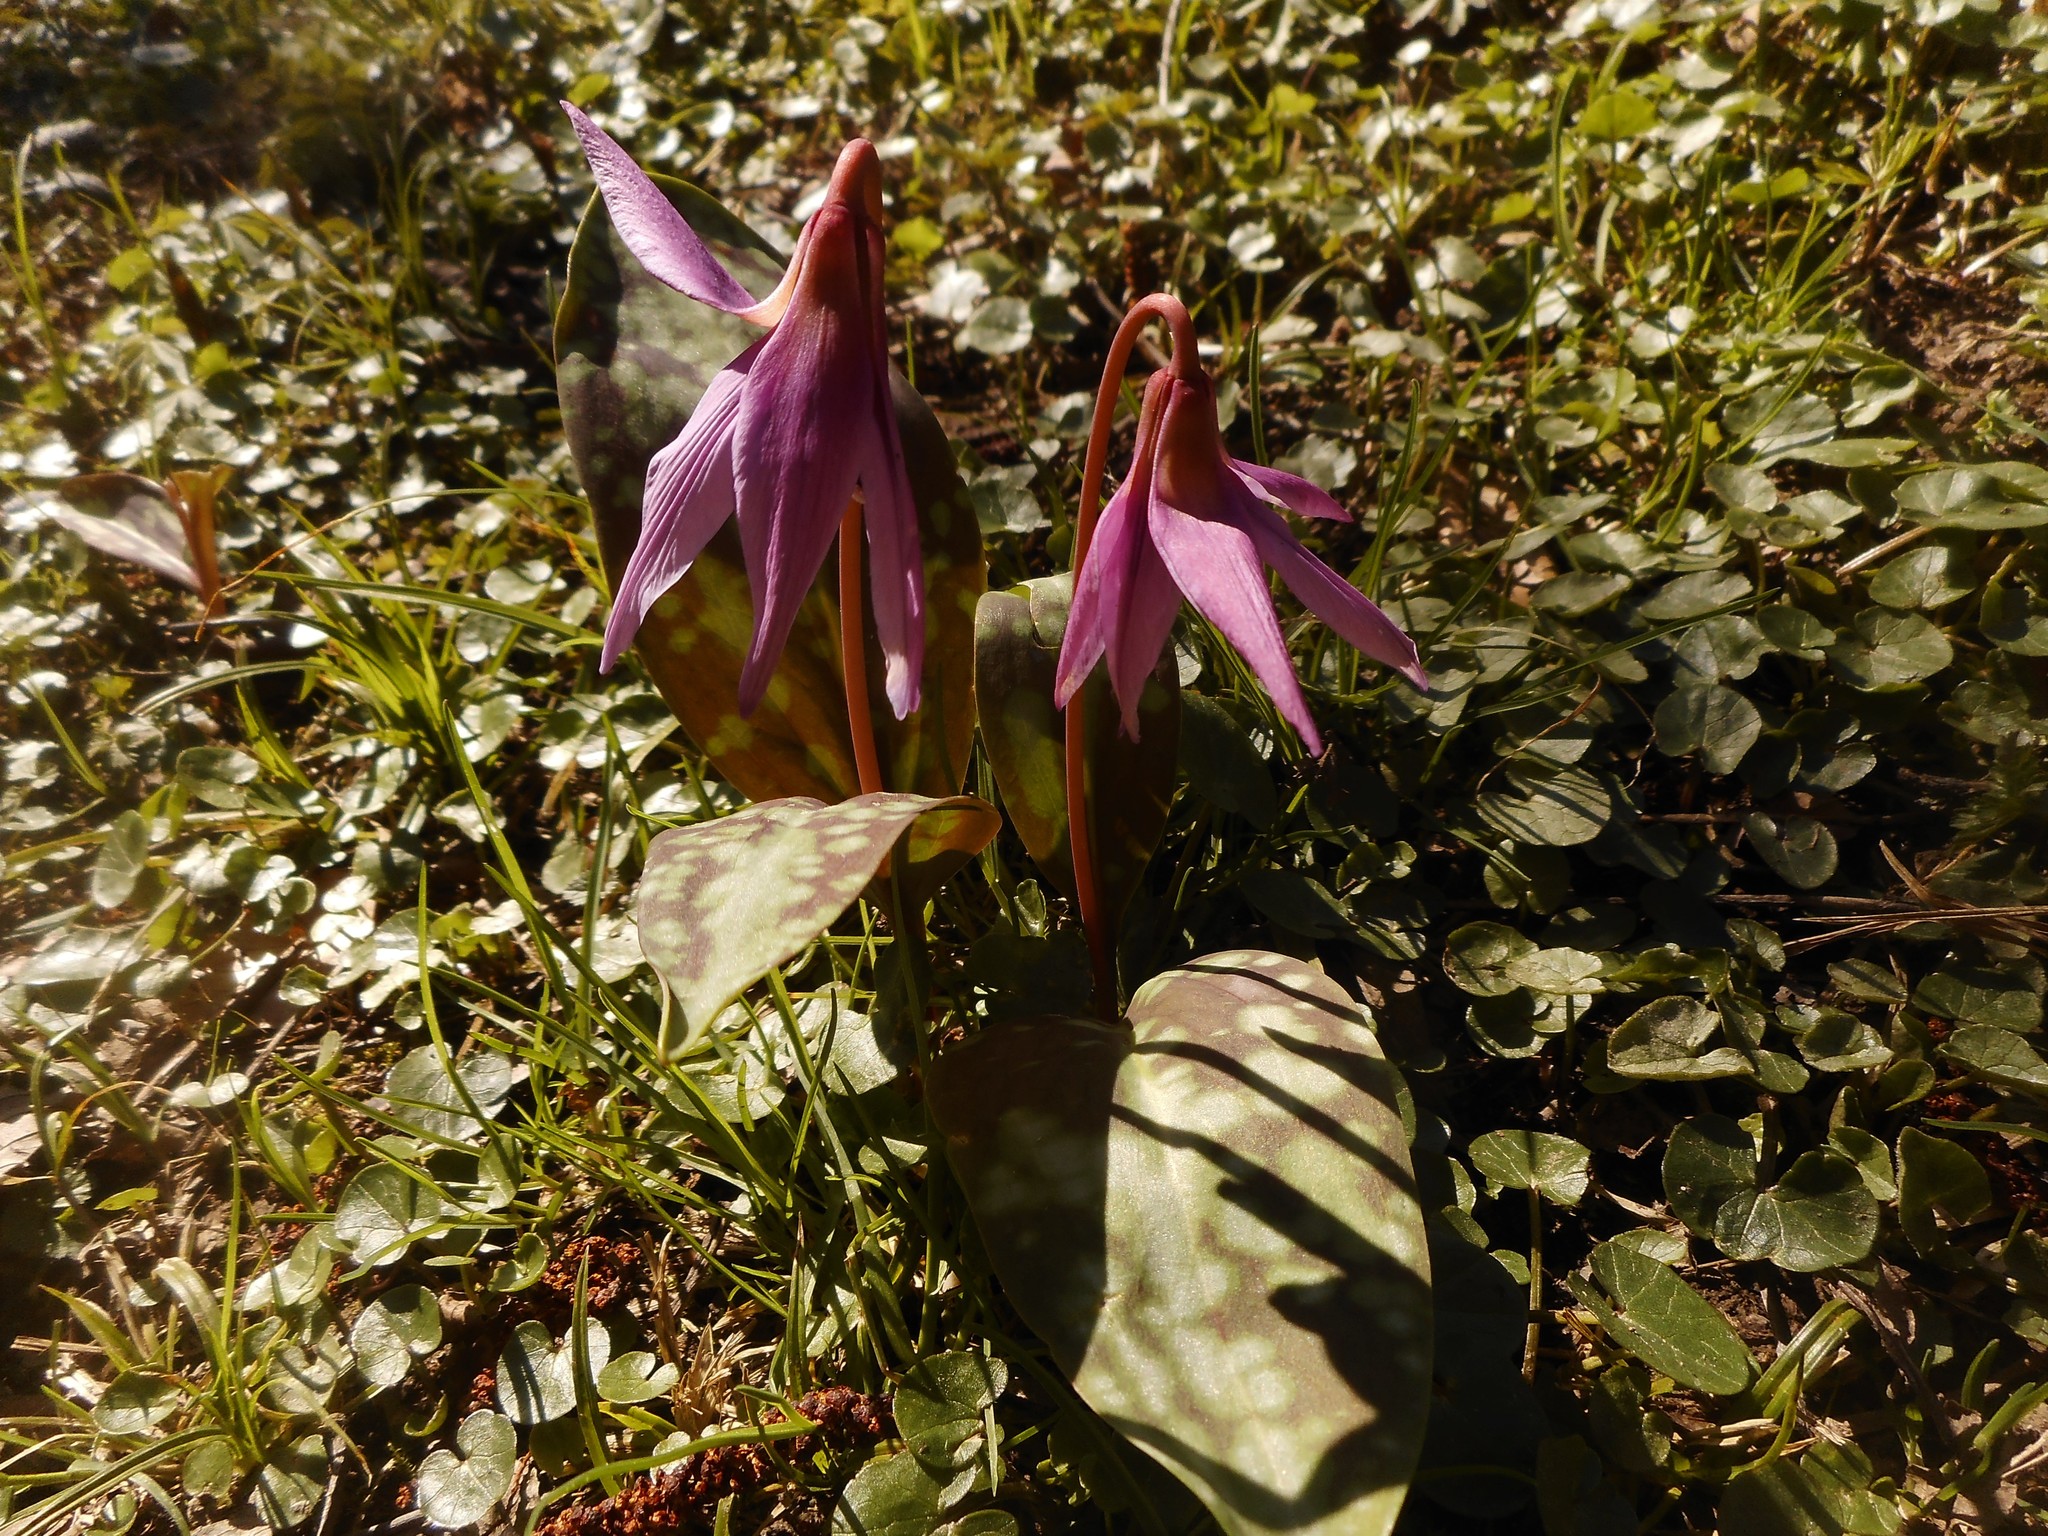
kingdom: Plantae
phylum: Tracheophyta
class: Liliopsida
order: Liliales
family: Liliaceae
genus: Erythronium
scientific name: Erythronium dens-canis
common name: Dog's-tooth-violet
